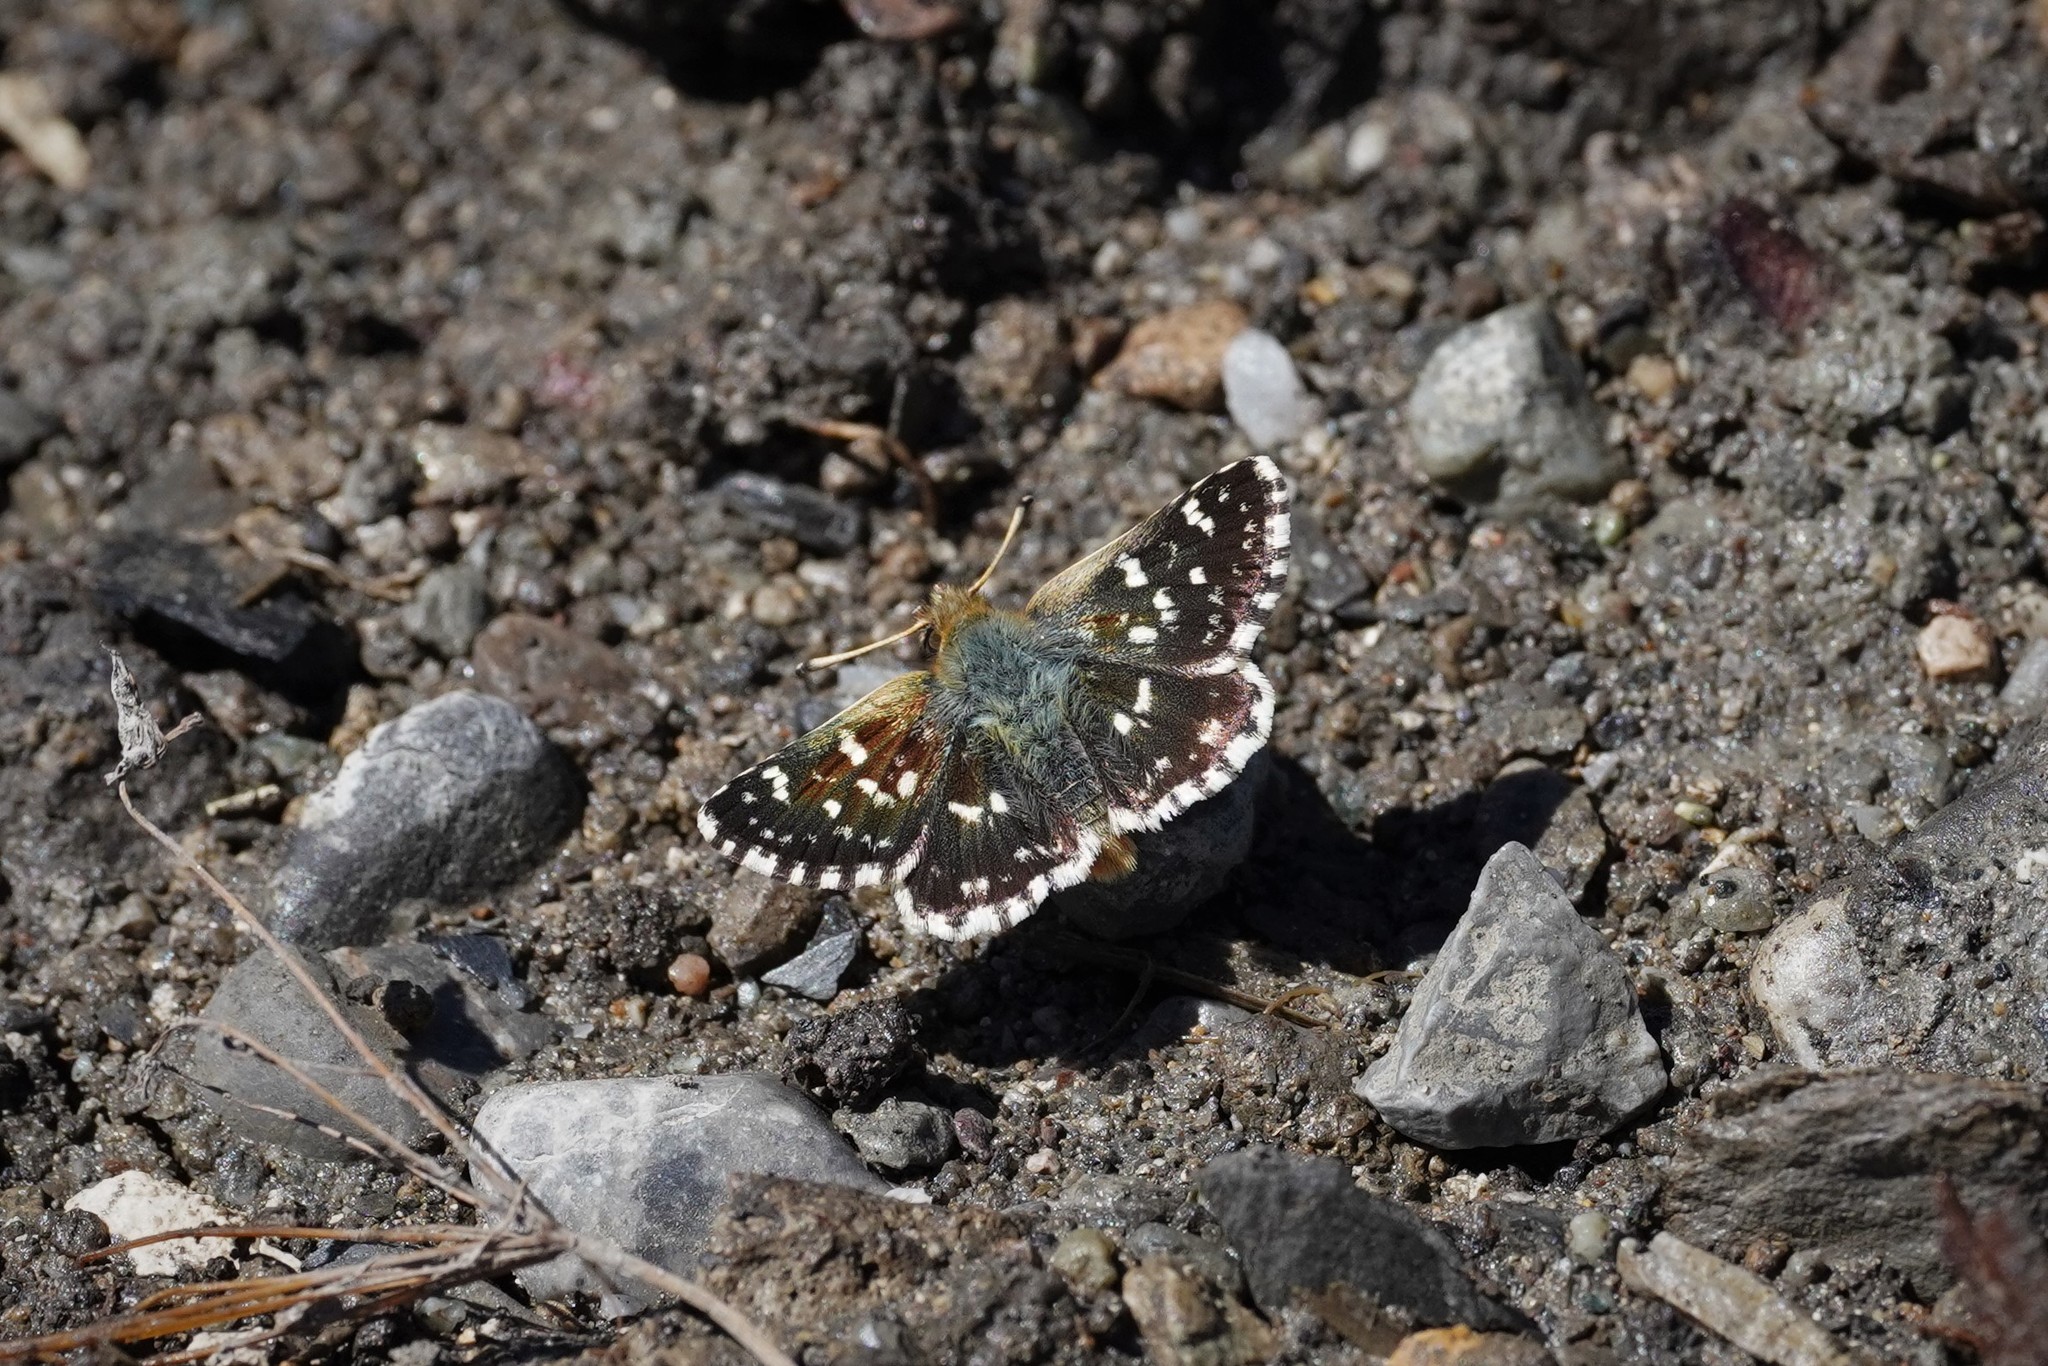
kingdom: Animalia
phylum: Arthropoda
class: Insecta
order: Lepidoptera
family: Hesperiidae
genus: Spialia
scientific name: Spialia sertorius
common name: Red underwing skipper
